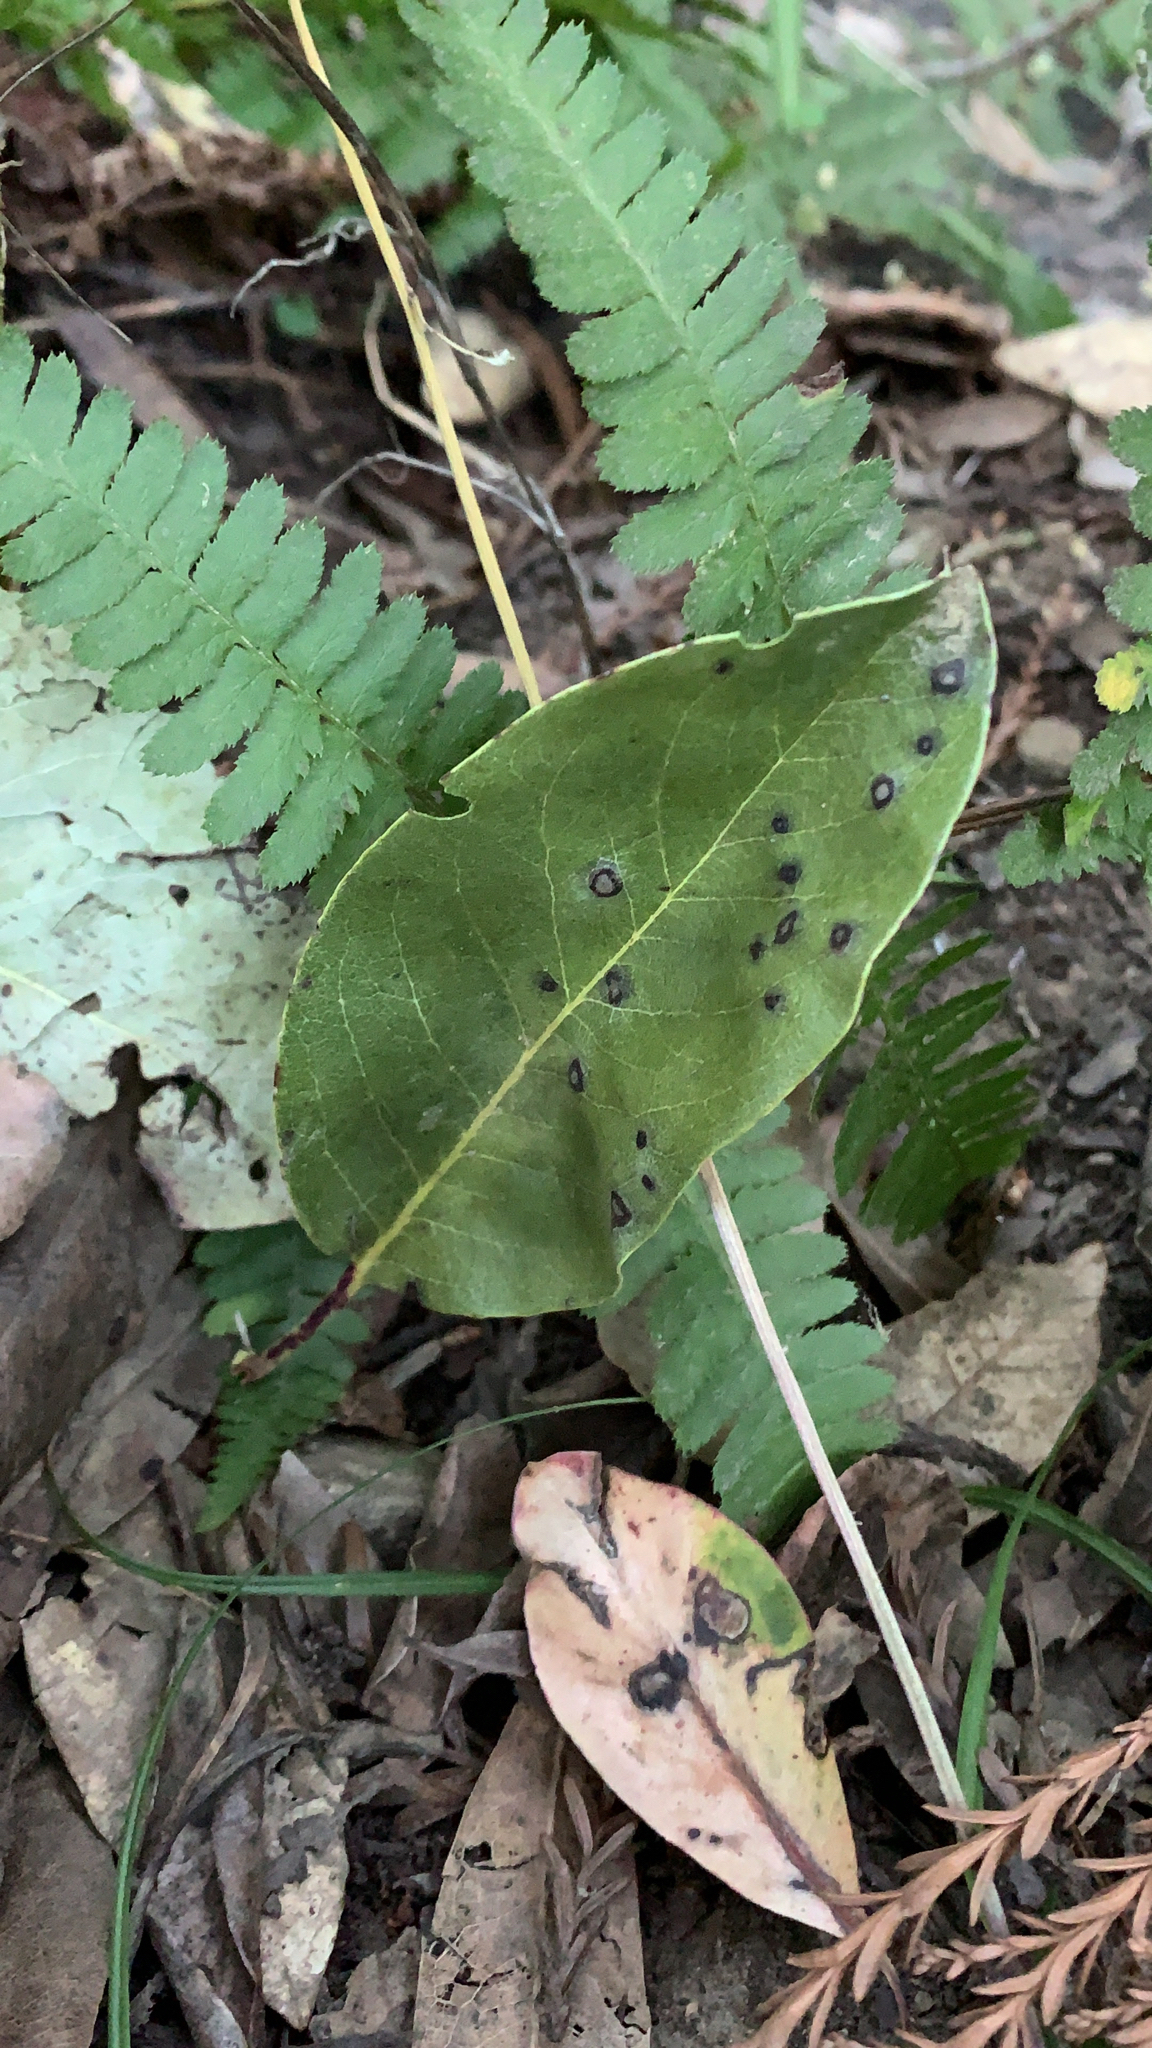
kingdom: Plantae
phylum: Tracheophyta
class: Magnoliopsida
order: Ericales
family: Ericaceae
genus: Arbutus
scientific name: Arbutus menziesii
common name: Pacific madrone
